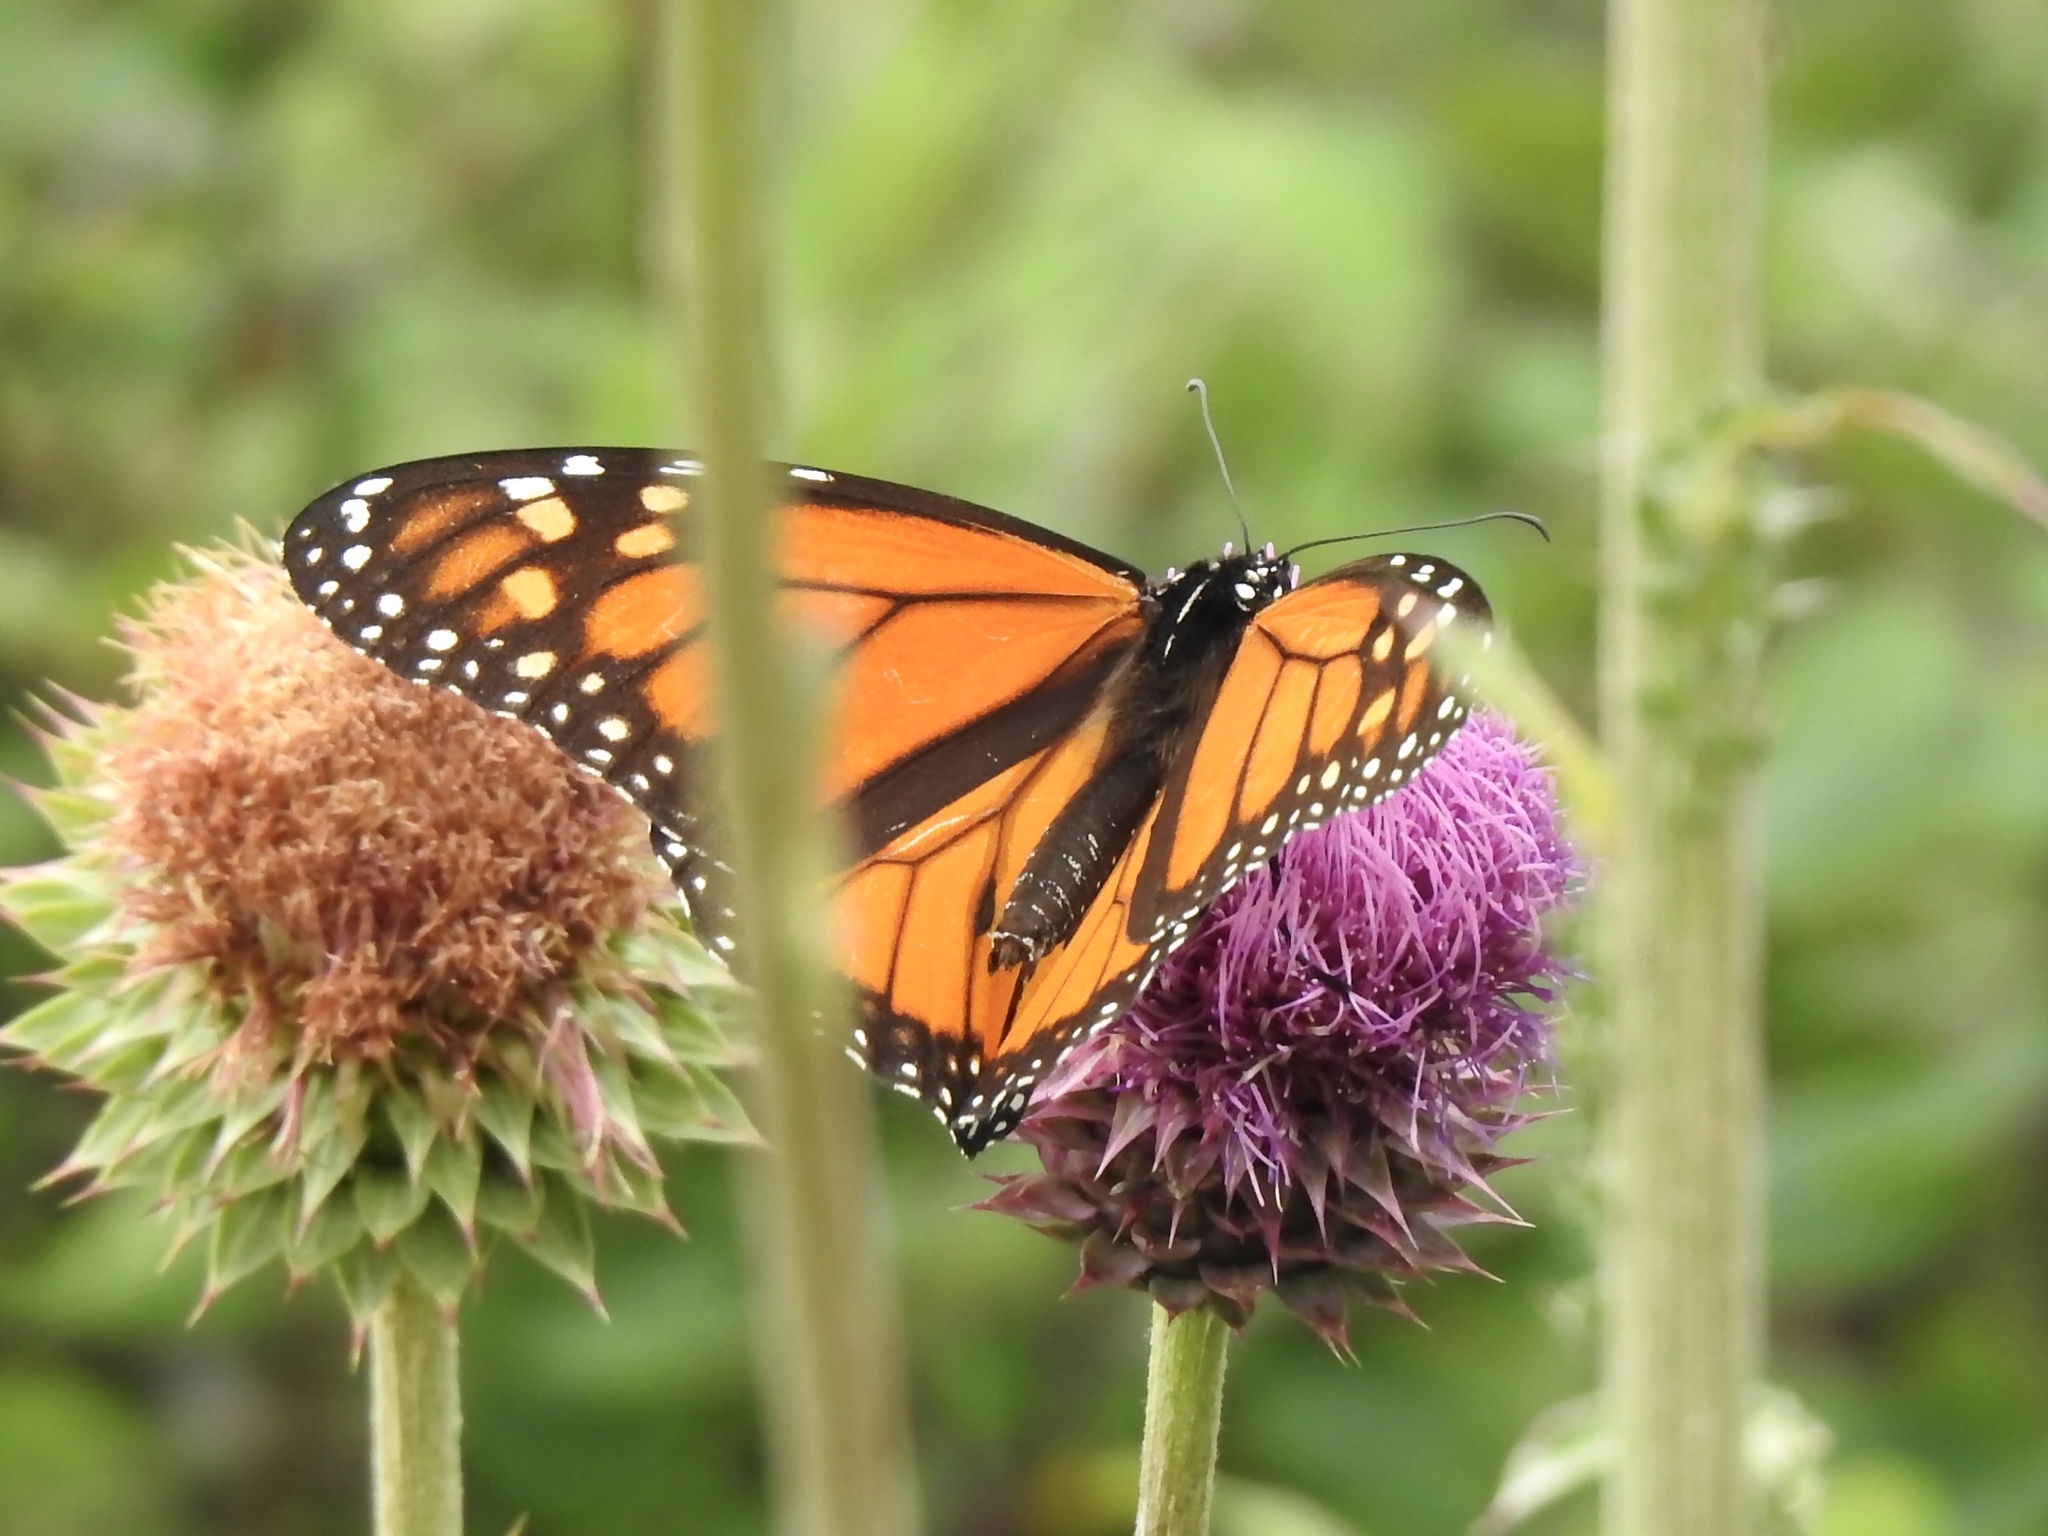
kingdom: Animalia
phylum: Arthropoda
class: Insecta
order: Lepidoptera
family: Nymphalidae
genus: Danaus
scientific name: Danaus plexippus
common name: Monarch
